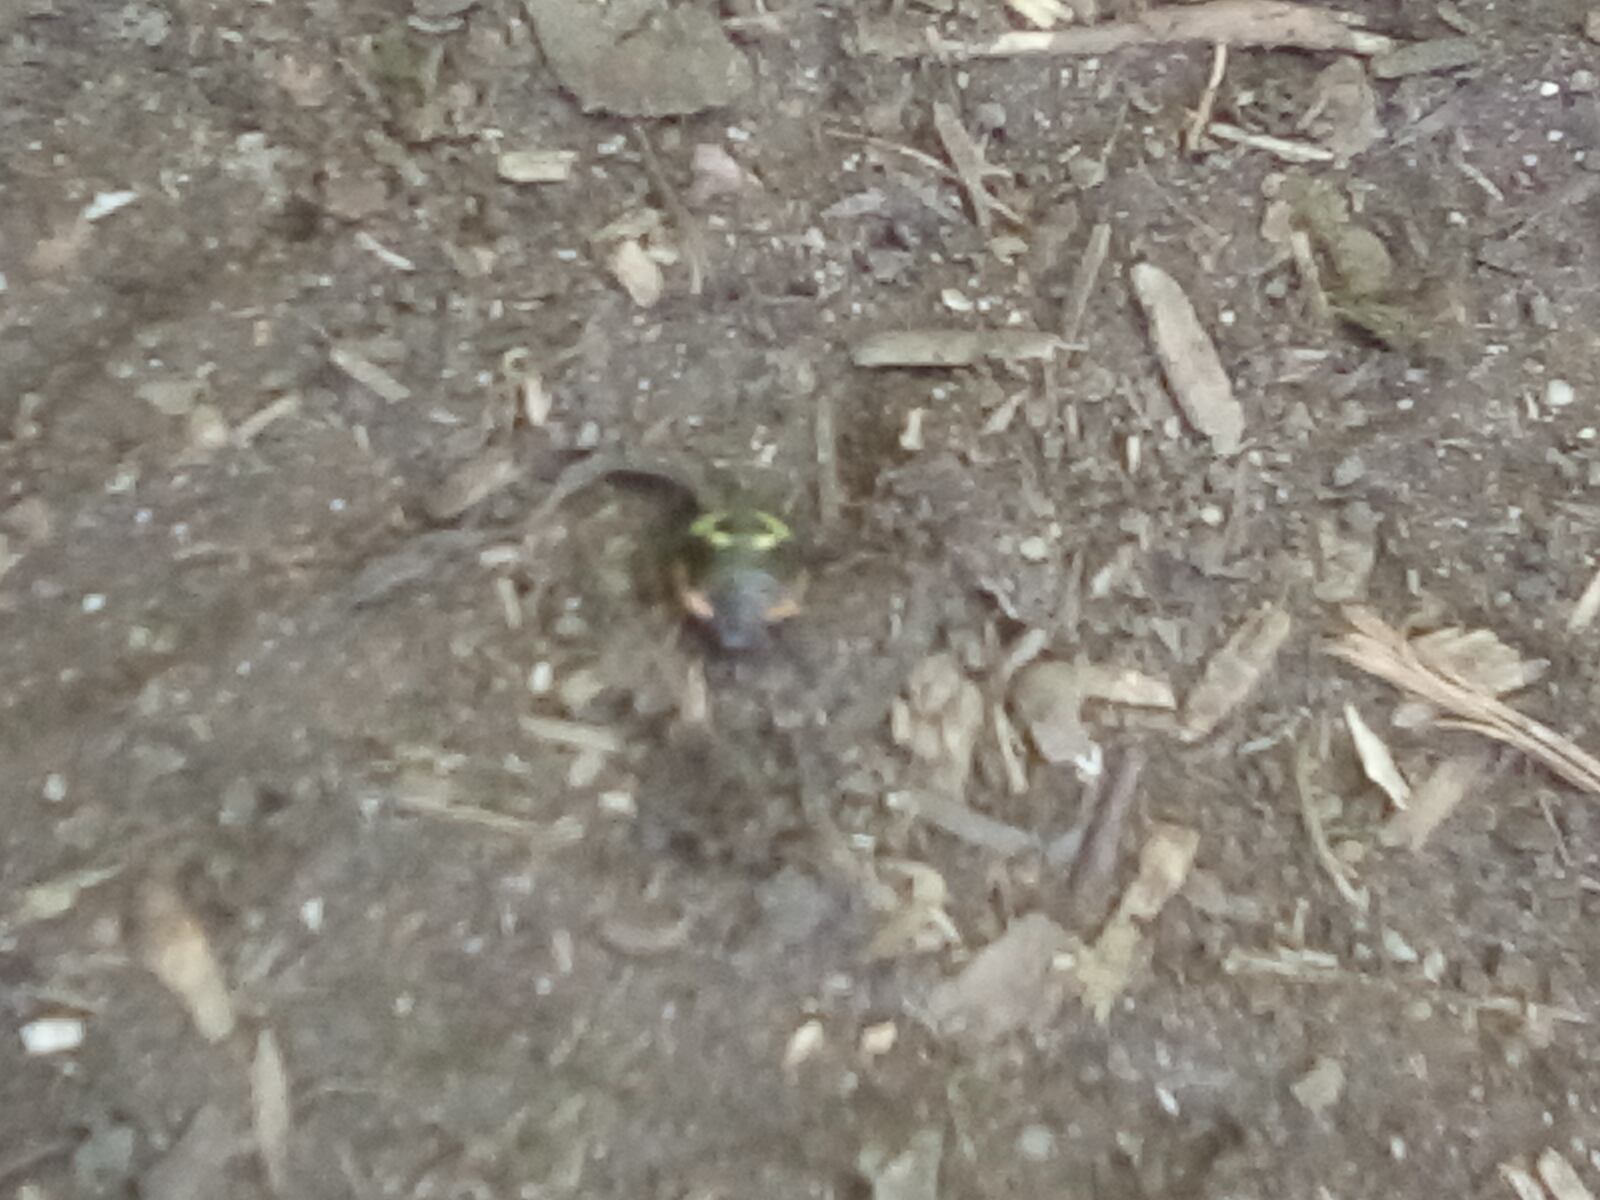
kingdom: Animalia
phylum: Arthropoda
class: Insecta
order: Hemiptera
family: Pentatomidae
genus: Chinavia
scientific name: Chinavia hilaris
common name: Green stink bug
